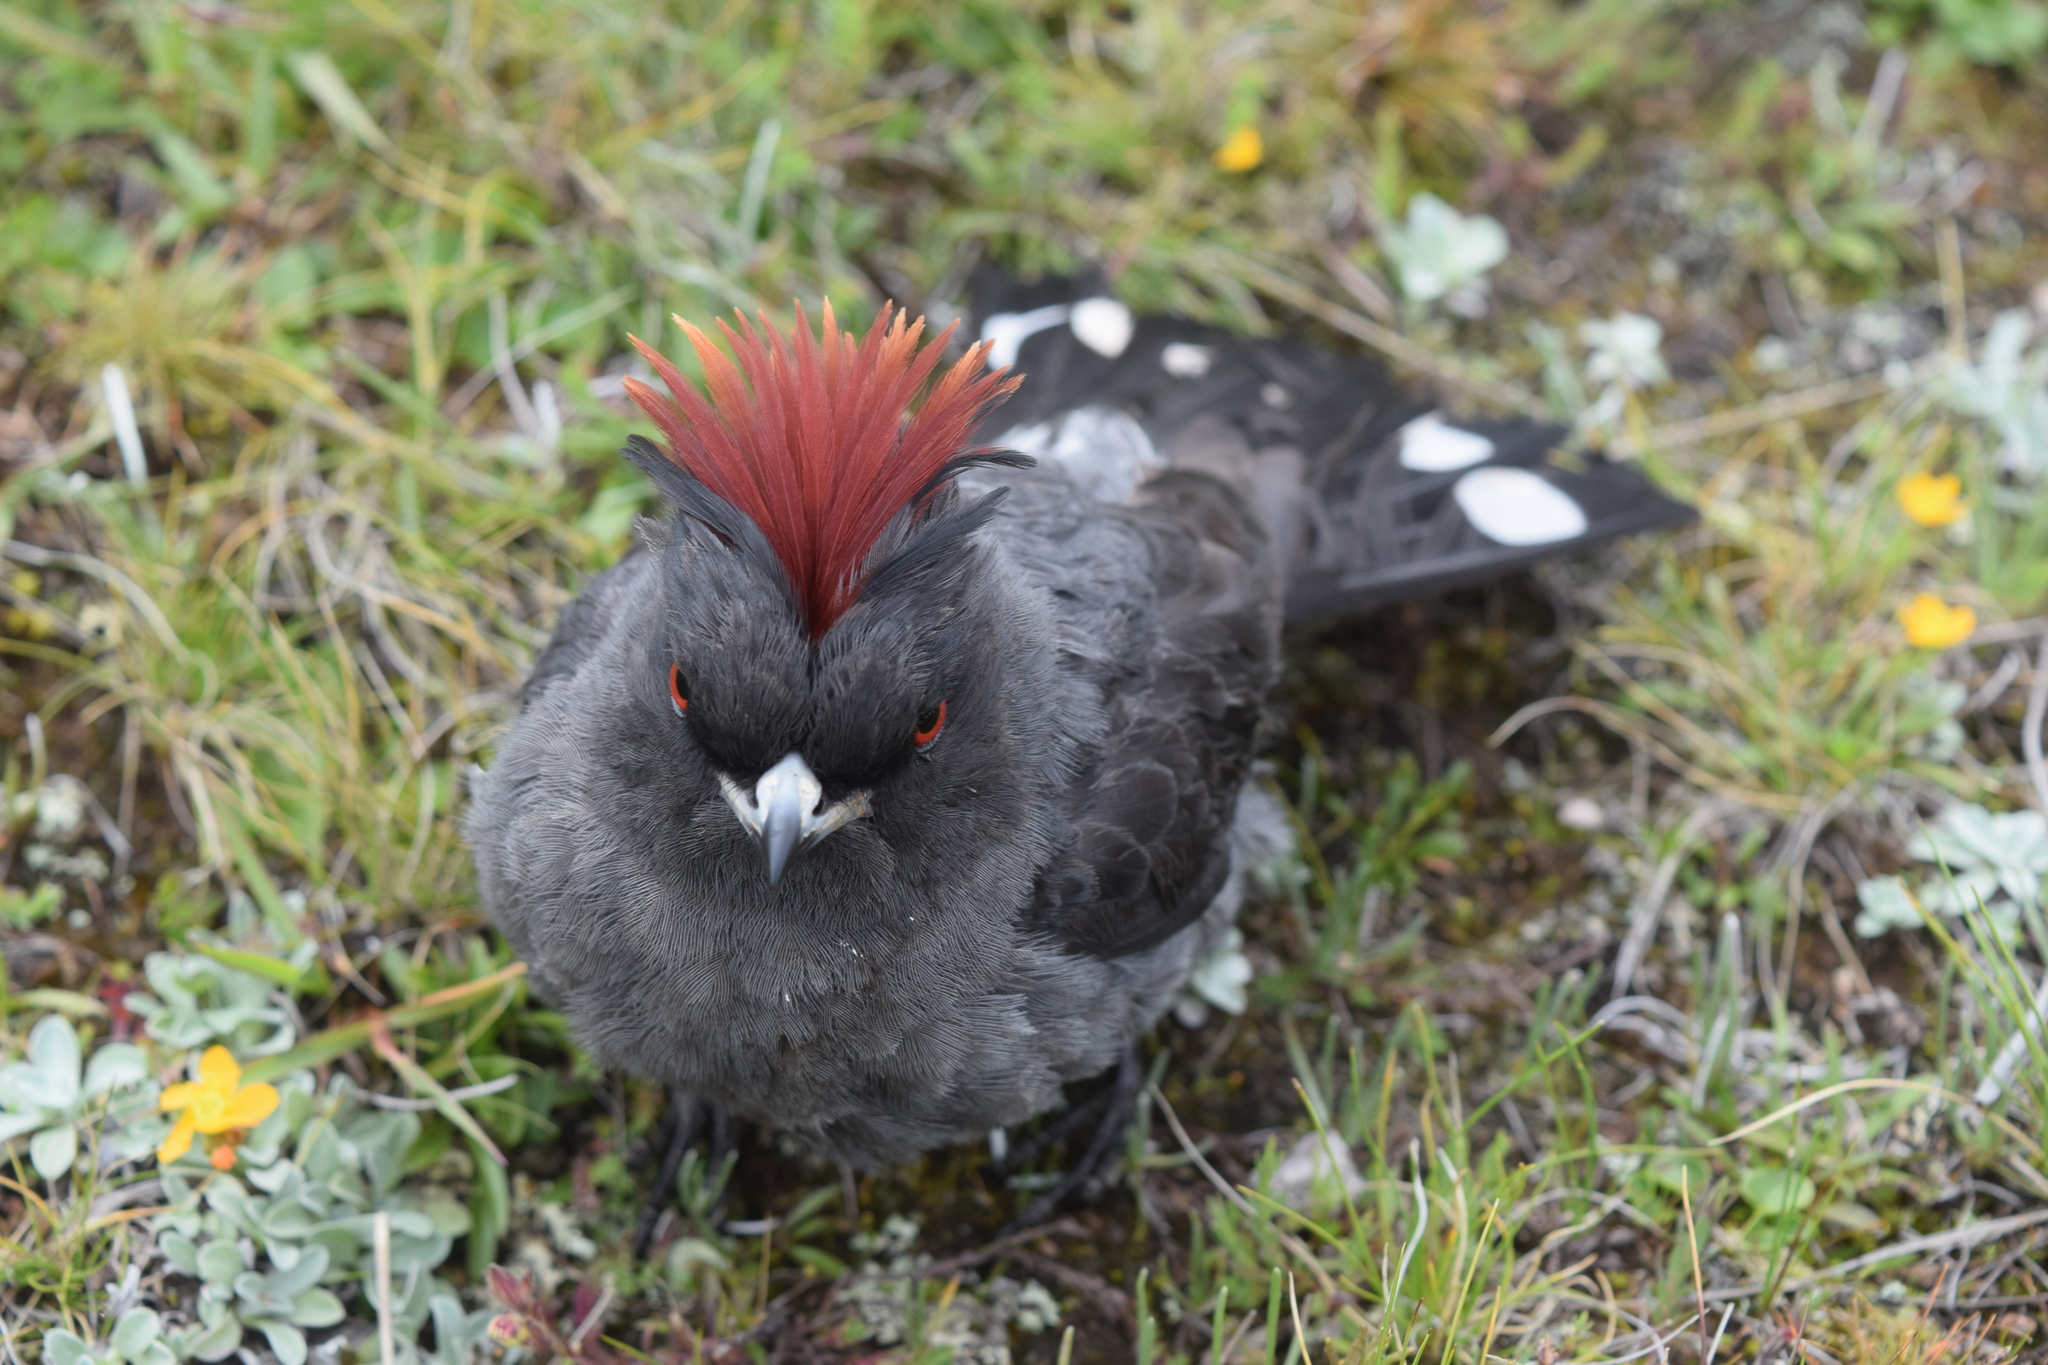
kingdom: Animalia
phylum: Chordata
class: Aves
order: Passeriformes
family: Cotingidae
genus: Ampelion
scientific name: Ampelion rubrocristatus
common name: Red-crested cotinga
